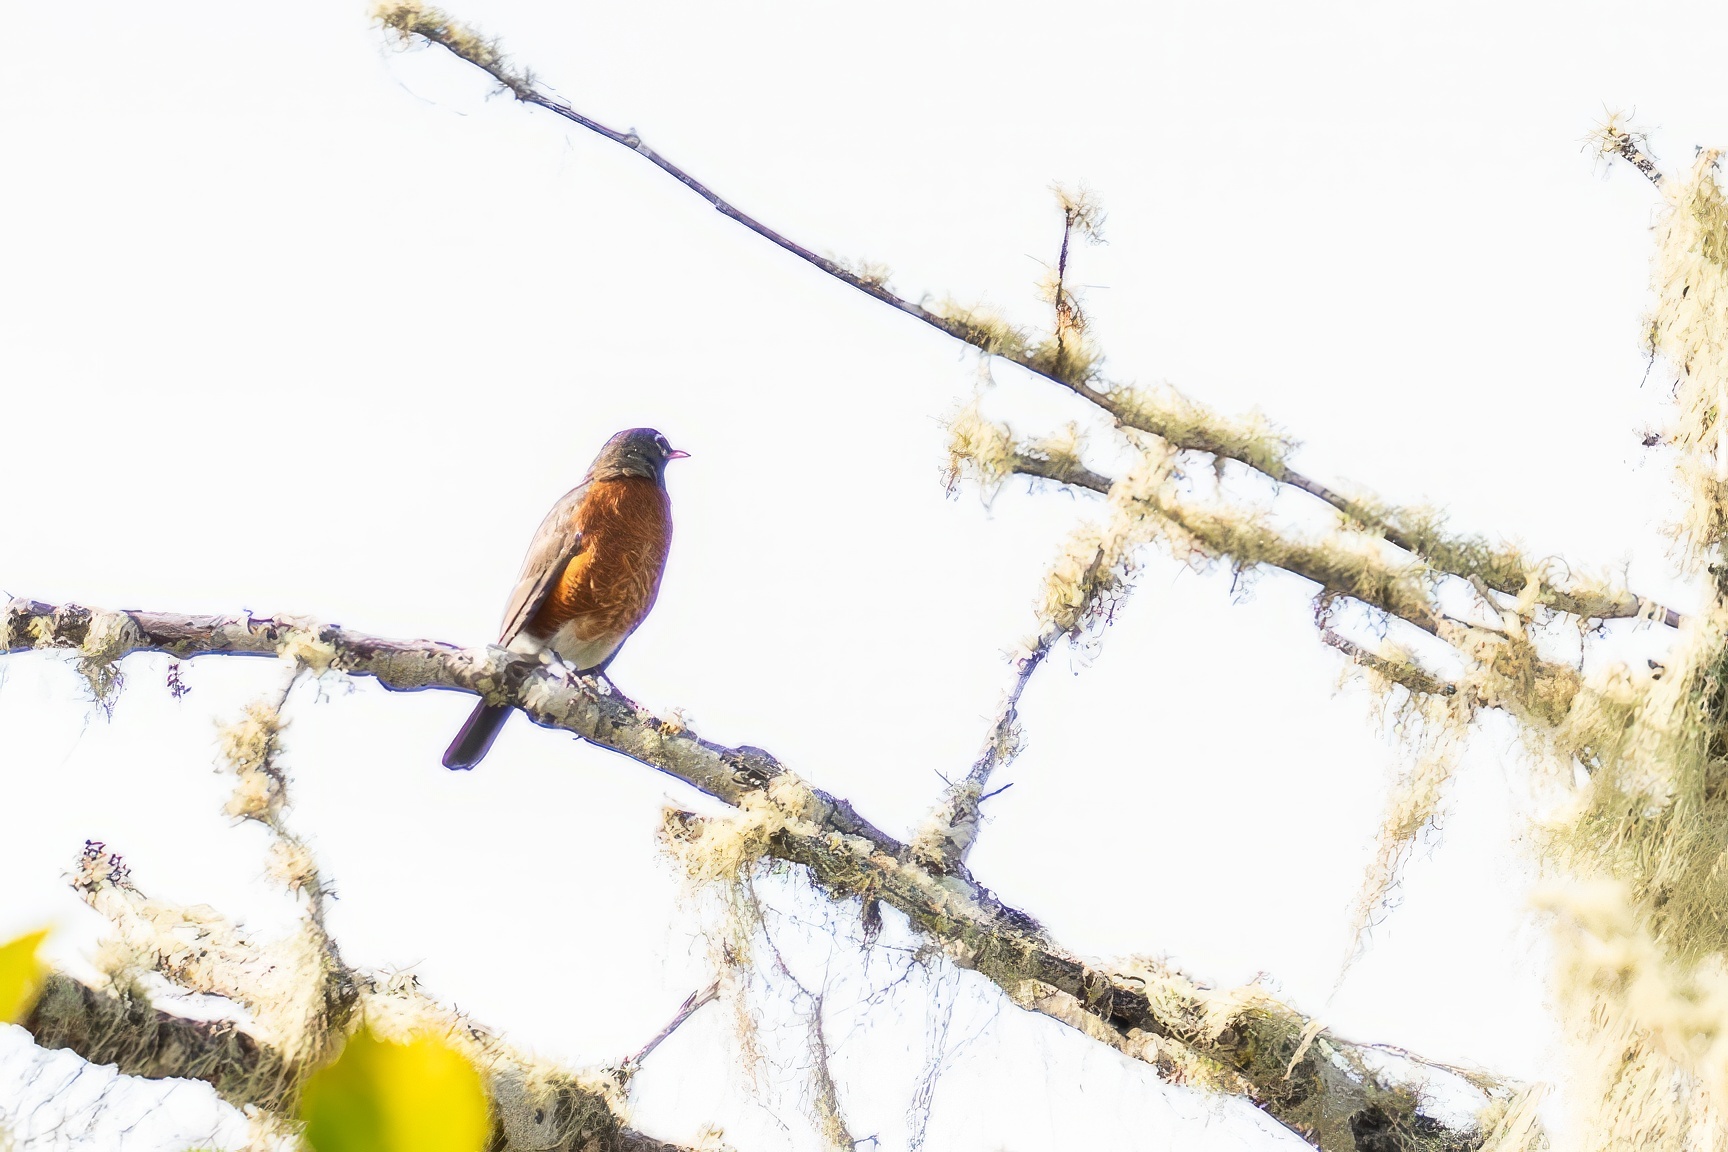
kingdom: Animalia
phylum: Chordata
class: Aves
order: Passeriformes
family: Turdidae
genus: Turdus
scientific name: Turdus migratorius
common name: American robin
